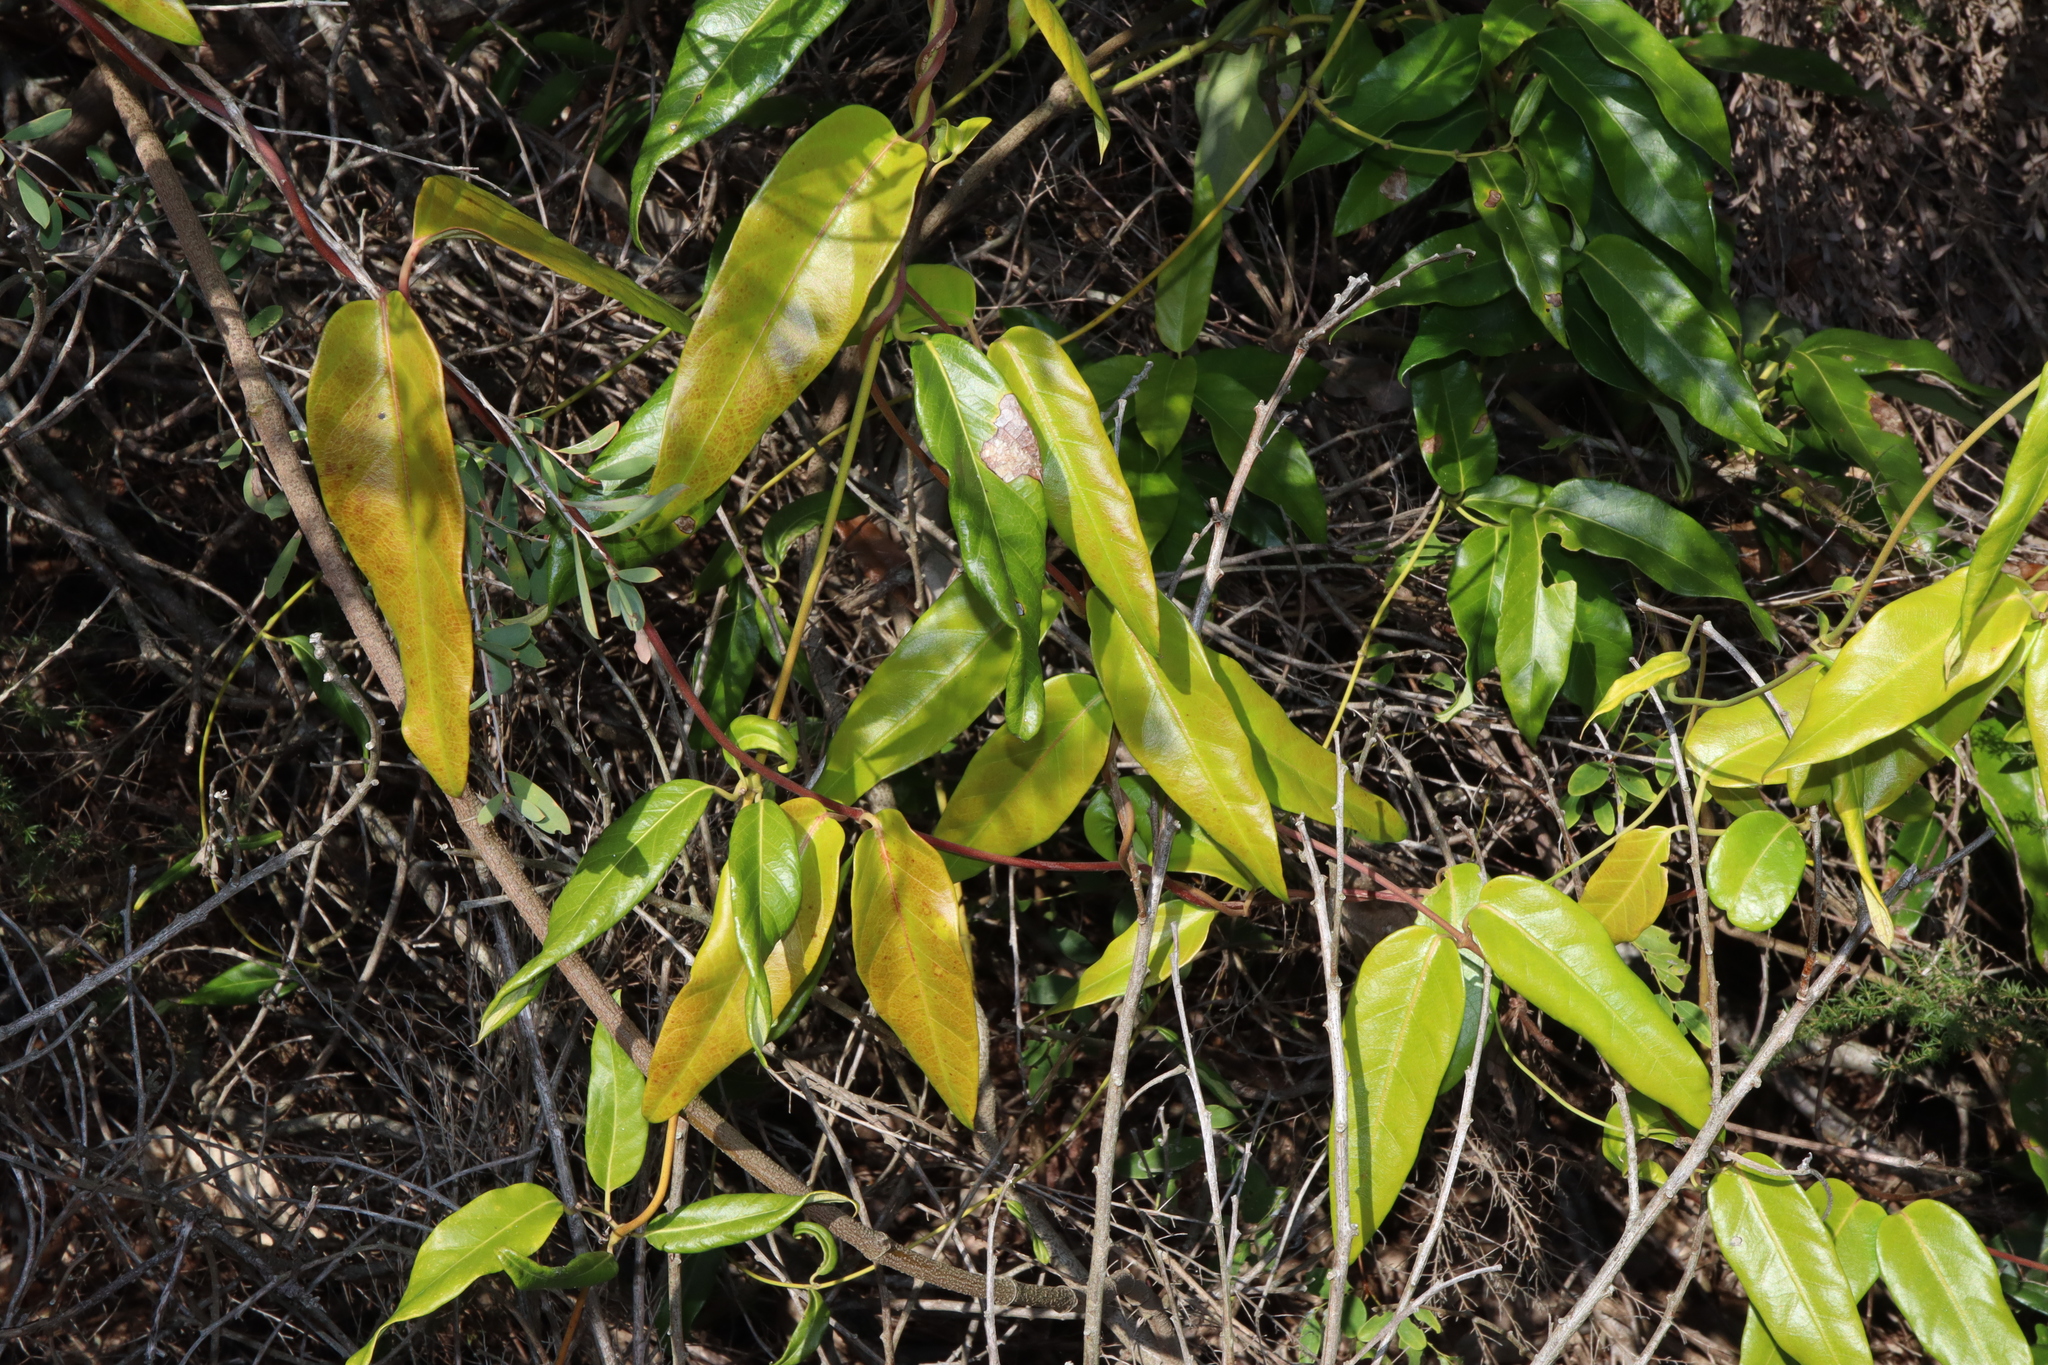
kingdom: Plantae
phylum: Tracheophyta
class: Magnoliopsida
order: Gentianales
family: Apocynaceae
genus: Parsonsia
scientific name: Parsonsia straminea
